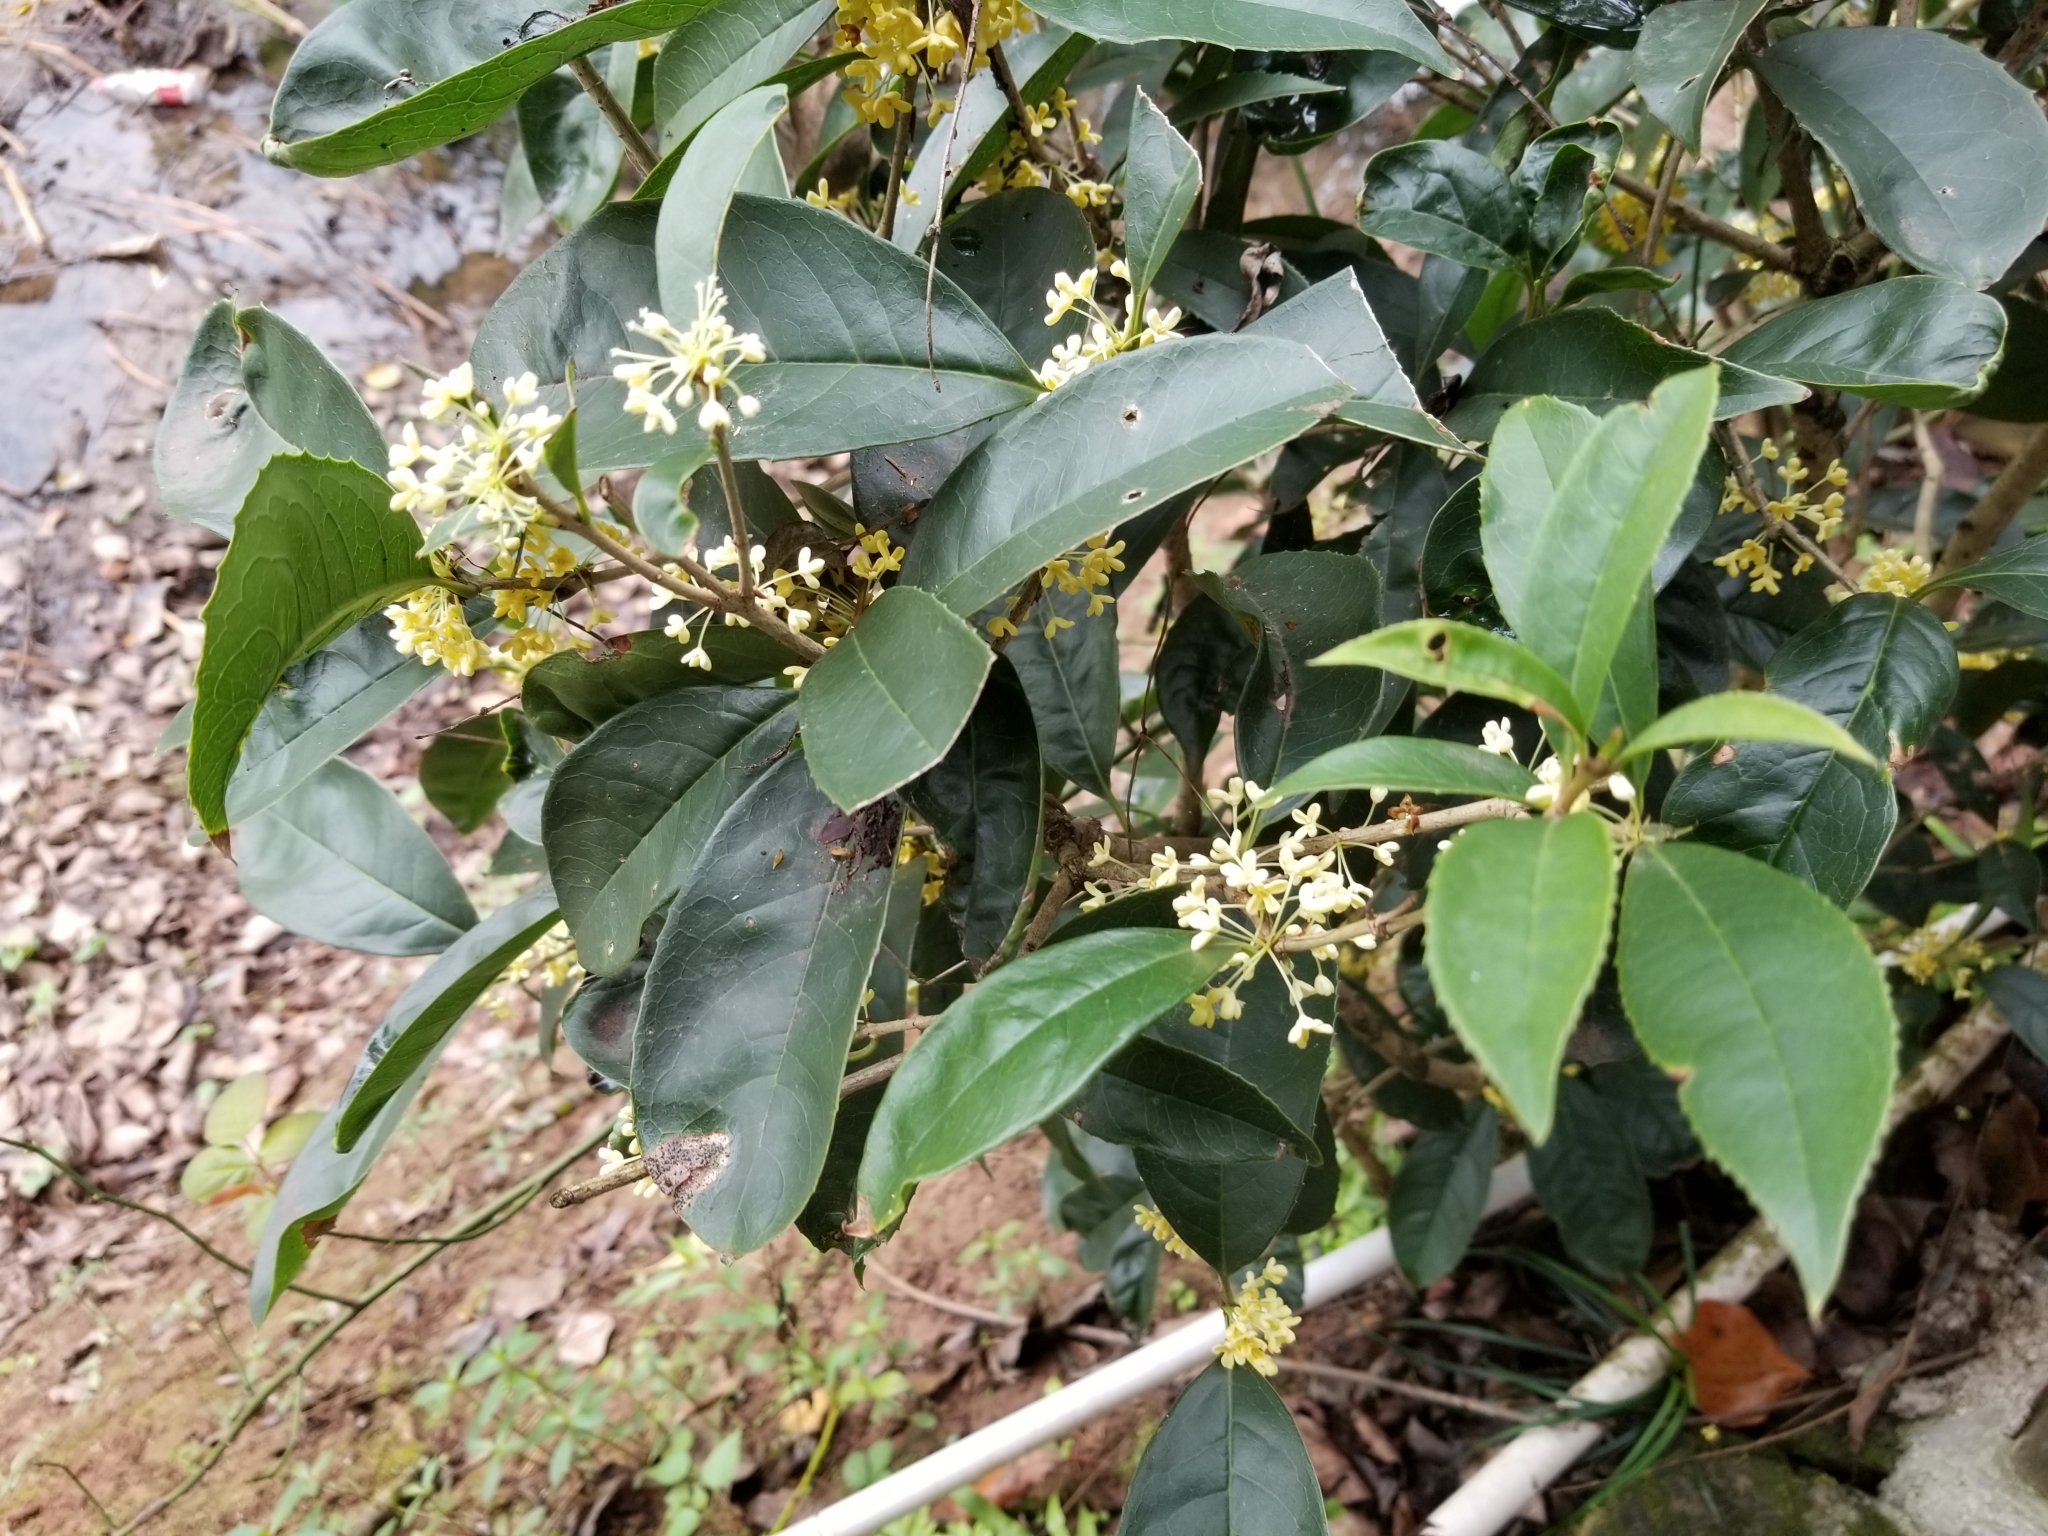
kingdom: Plantae
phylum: Tracheophyta
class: Magnoliopsida
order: Lamiales
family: Oleaceae
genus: Osmanthus
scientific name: Osmanthus fragrans
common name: Sweet osmanthus
